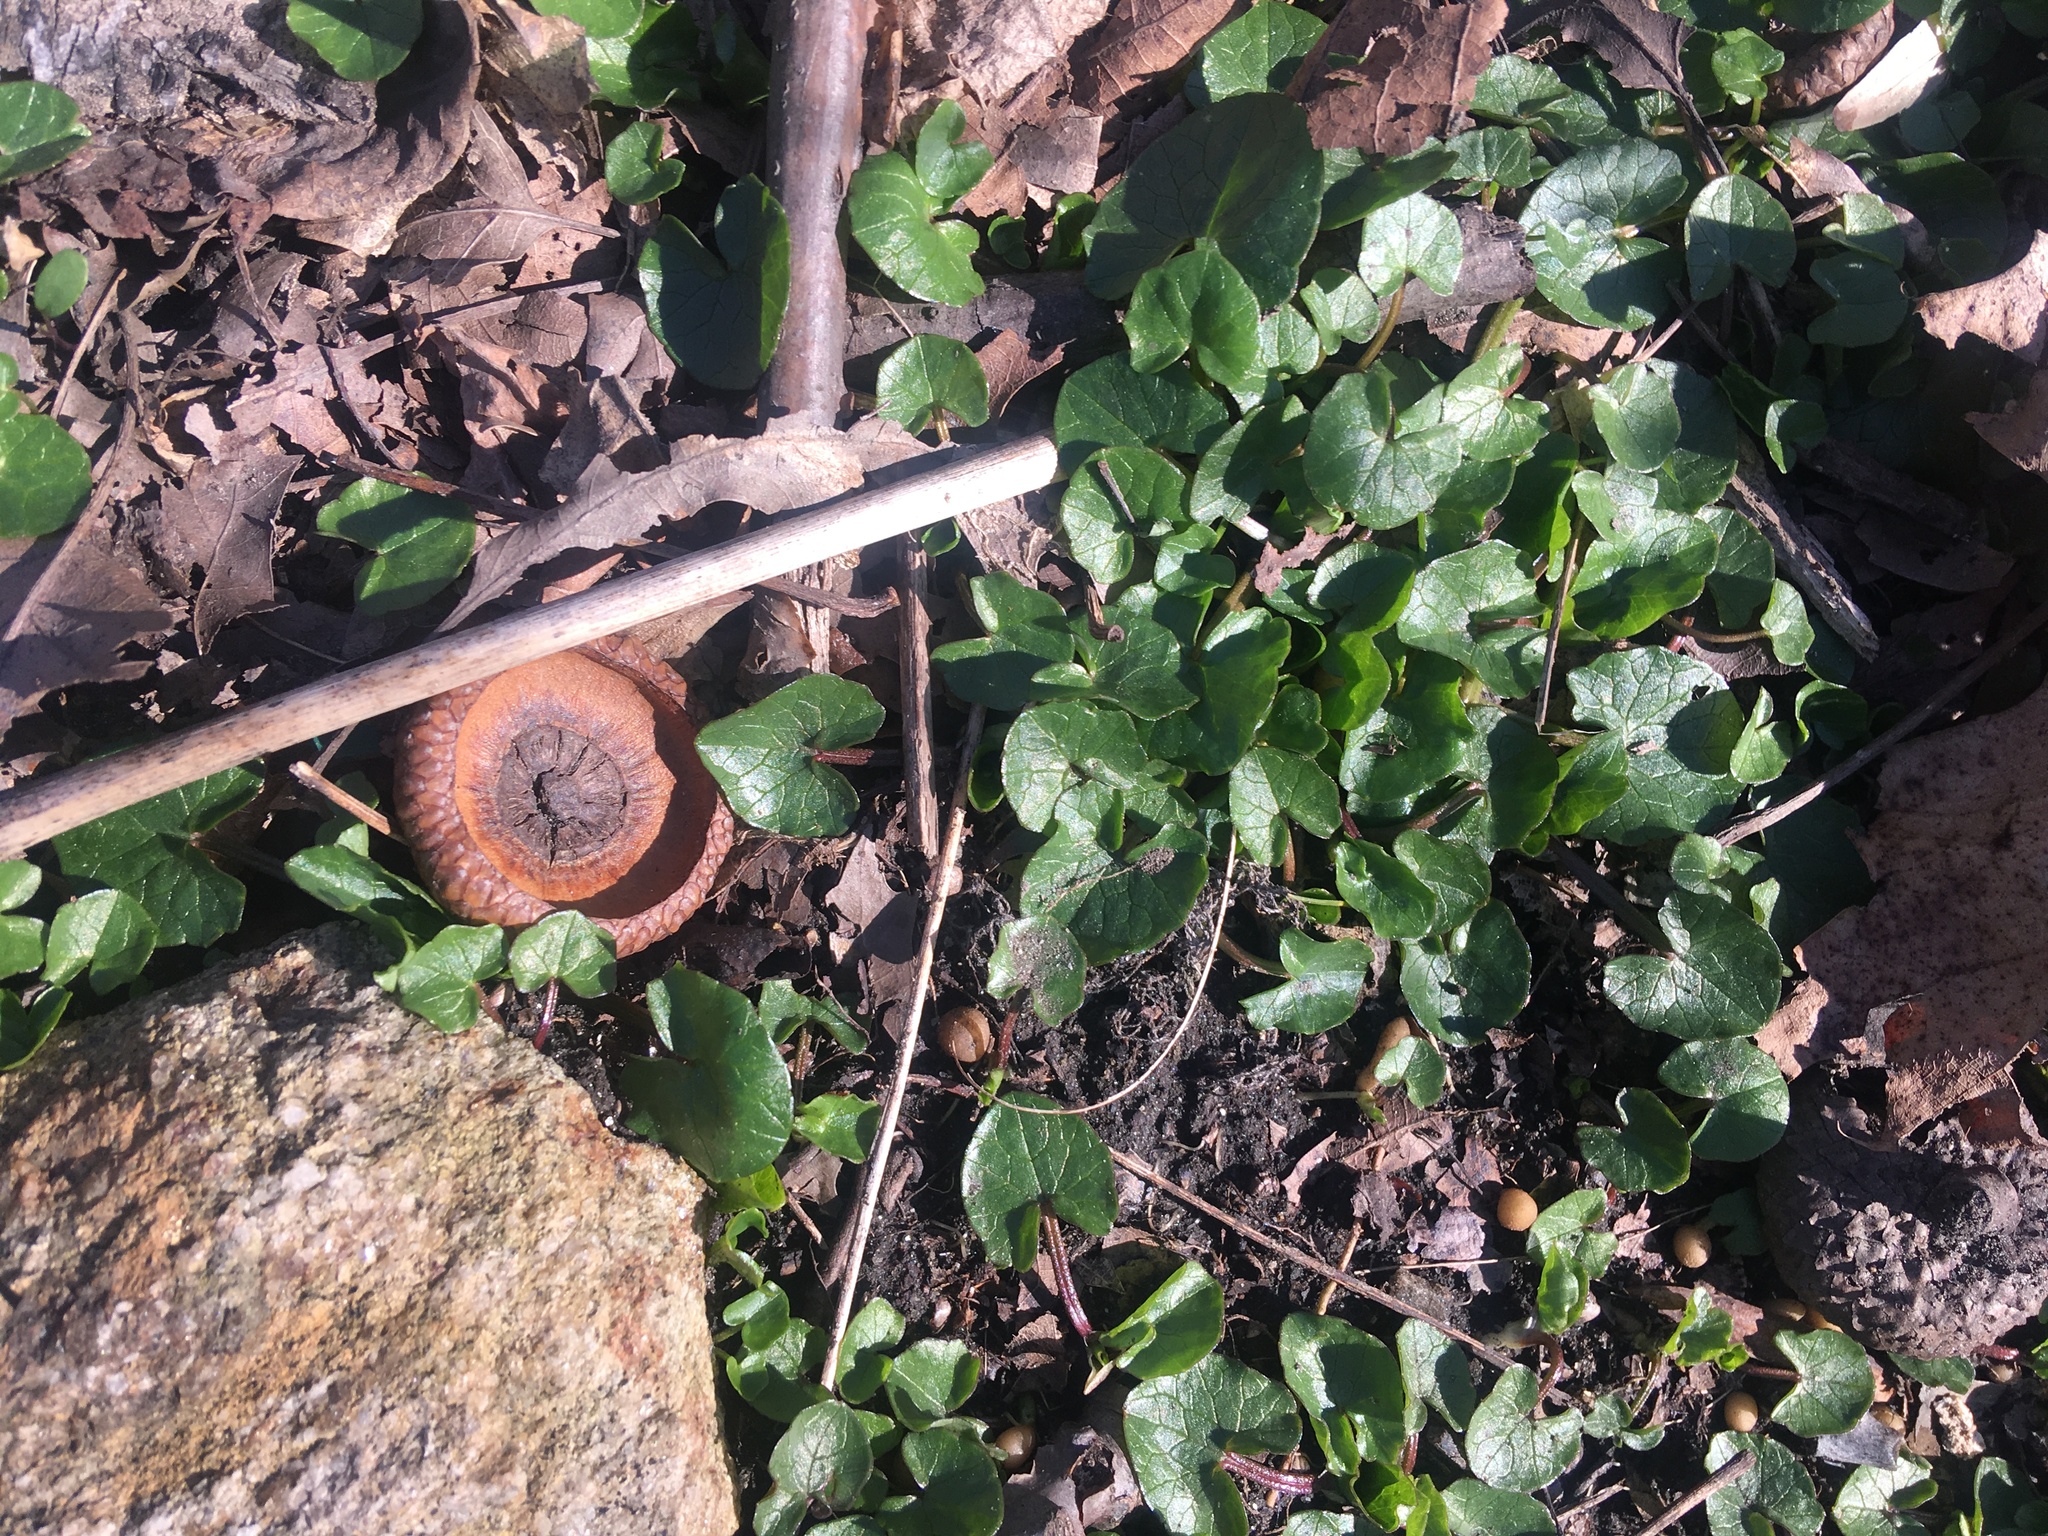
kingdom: Plantae
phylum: Tracheophyta
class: Magnoliopsida
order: Ranunculales
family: Ranunculaceae
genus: Ficaria
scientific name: Ficaria verna
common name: Lesser celandine
